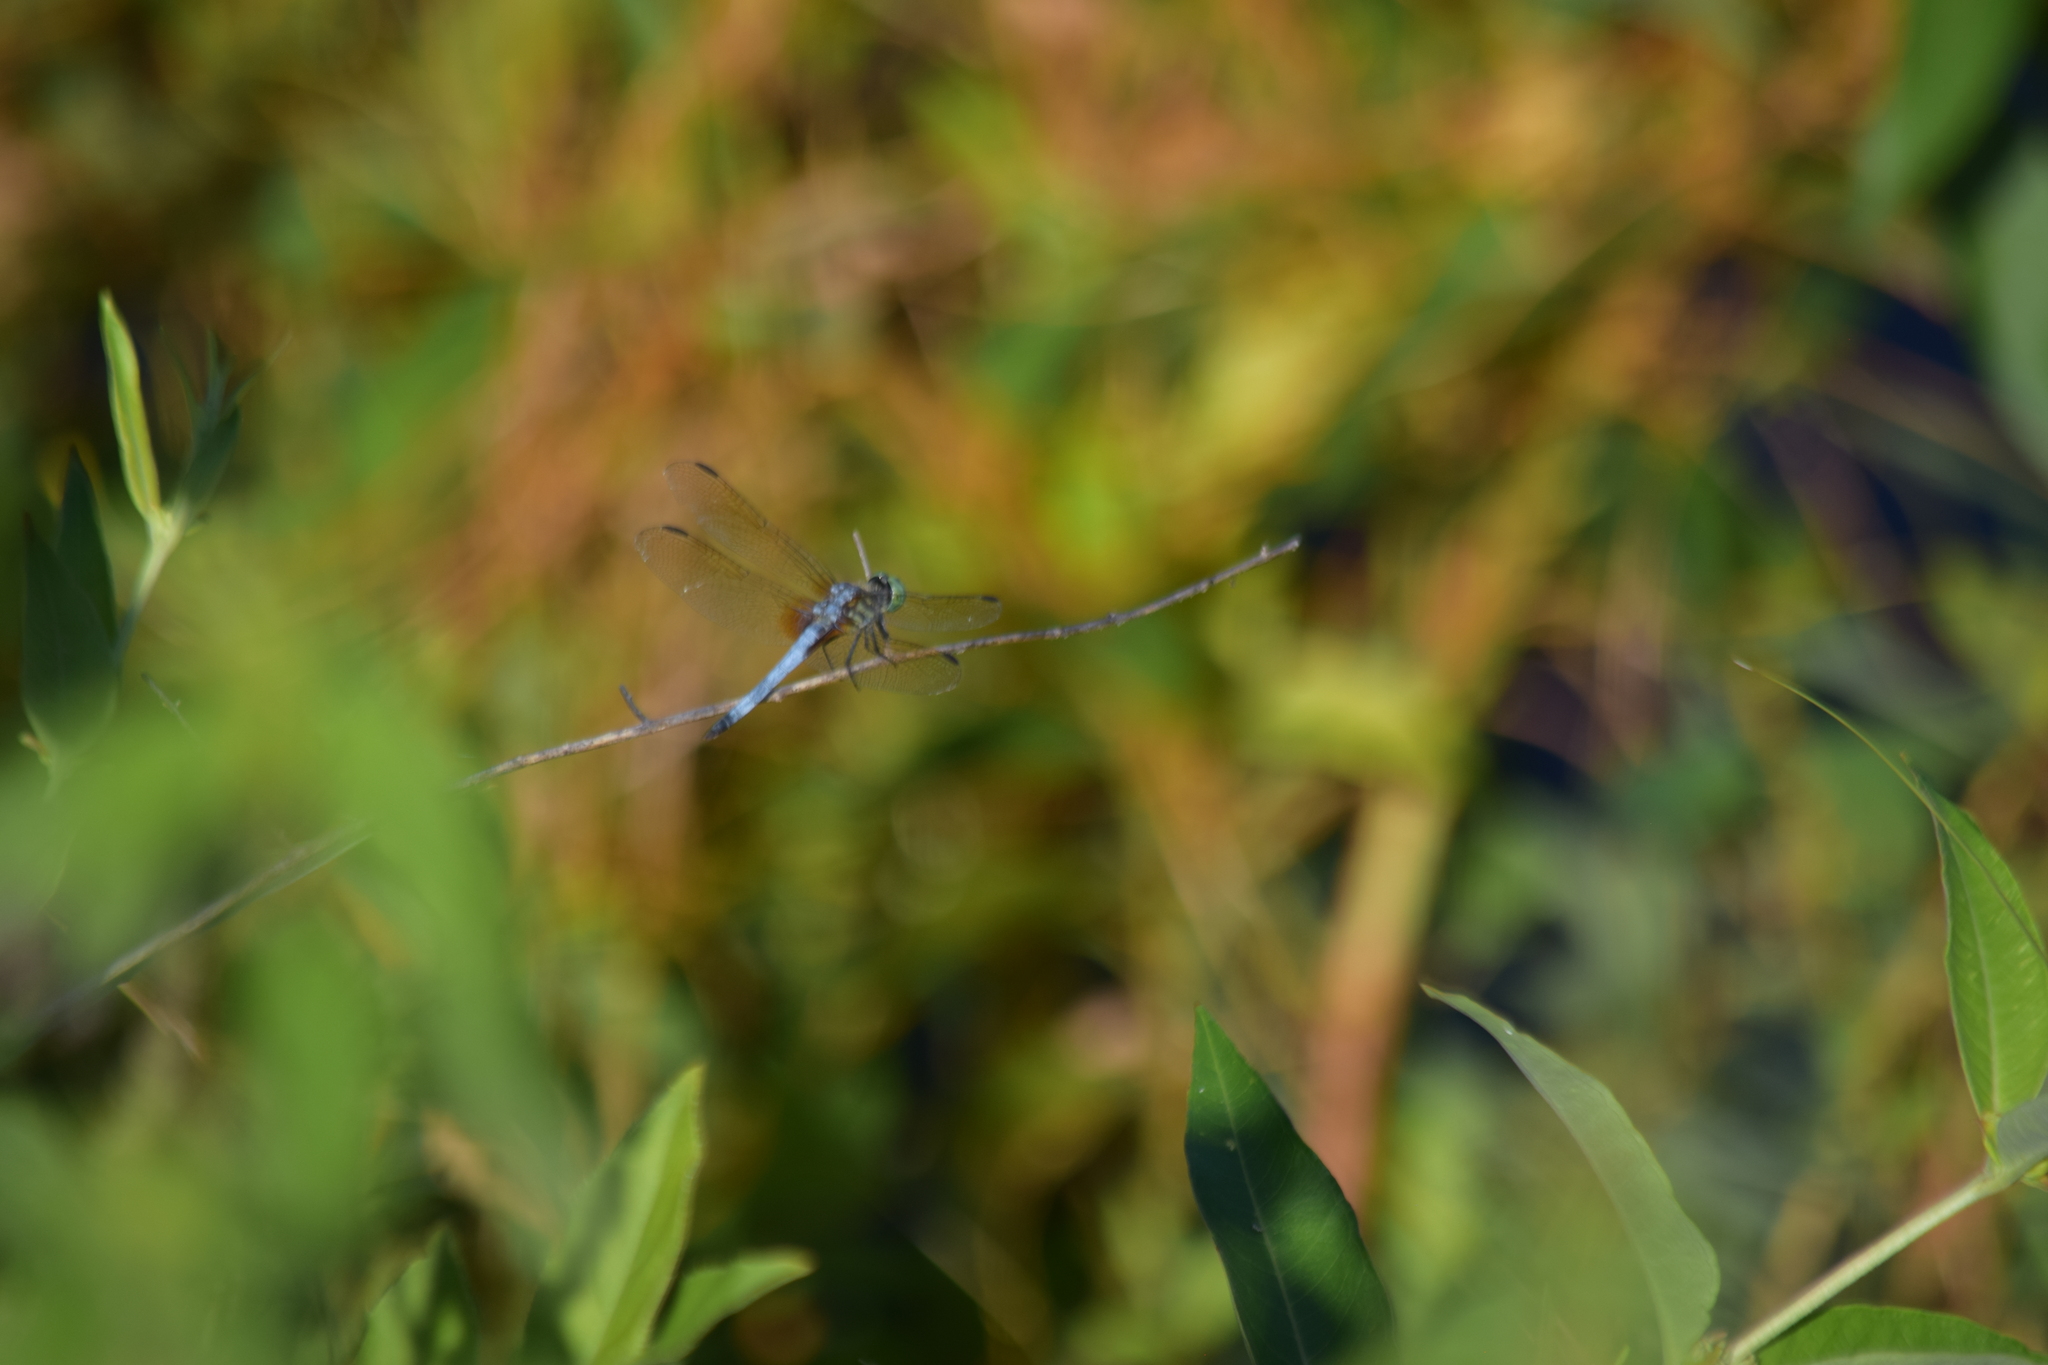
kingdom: Animalia
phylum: Arthropoda
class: Insecta
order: Odonata
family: Libellulidae
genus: Pachydiplax
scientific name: Pachydiplax longipennis
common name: Blue dasher
